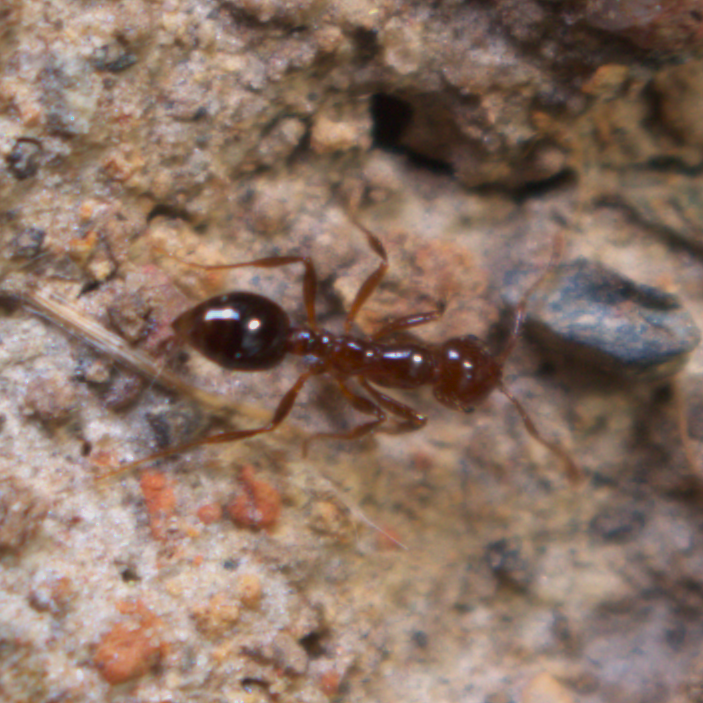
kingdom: Animalia
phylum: Arthropoda
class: Insecta
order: Hymenoptera
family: Formicidae
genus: Solenopsis
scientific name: Solenopsis invicta
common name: Red imported fire ant
